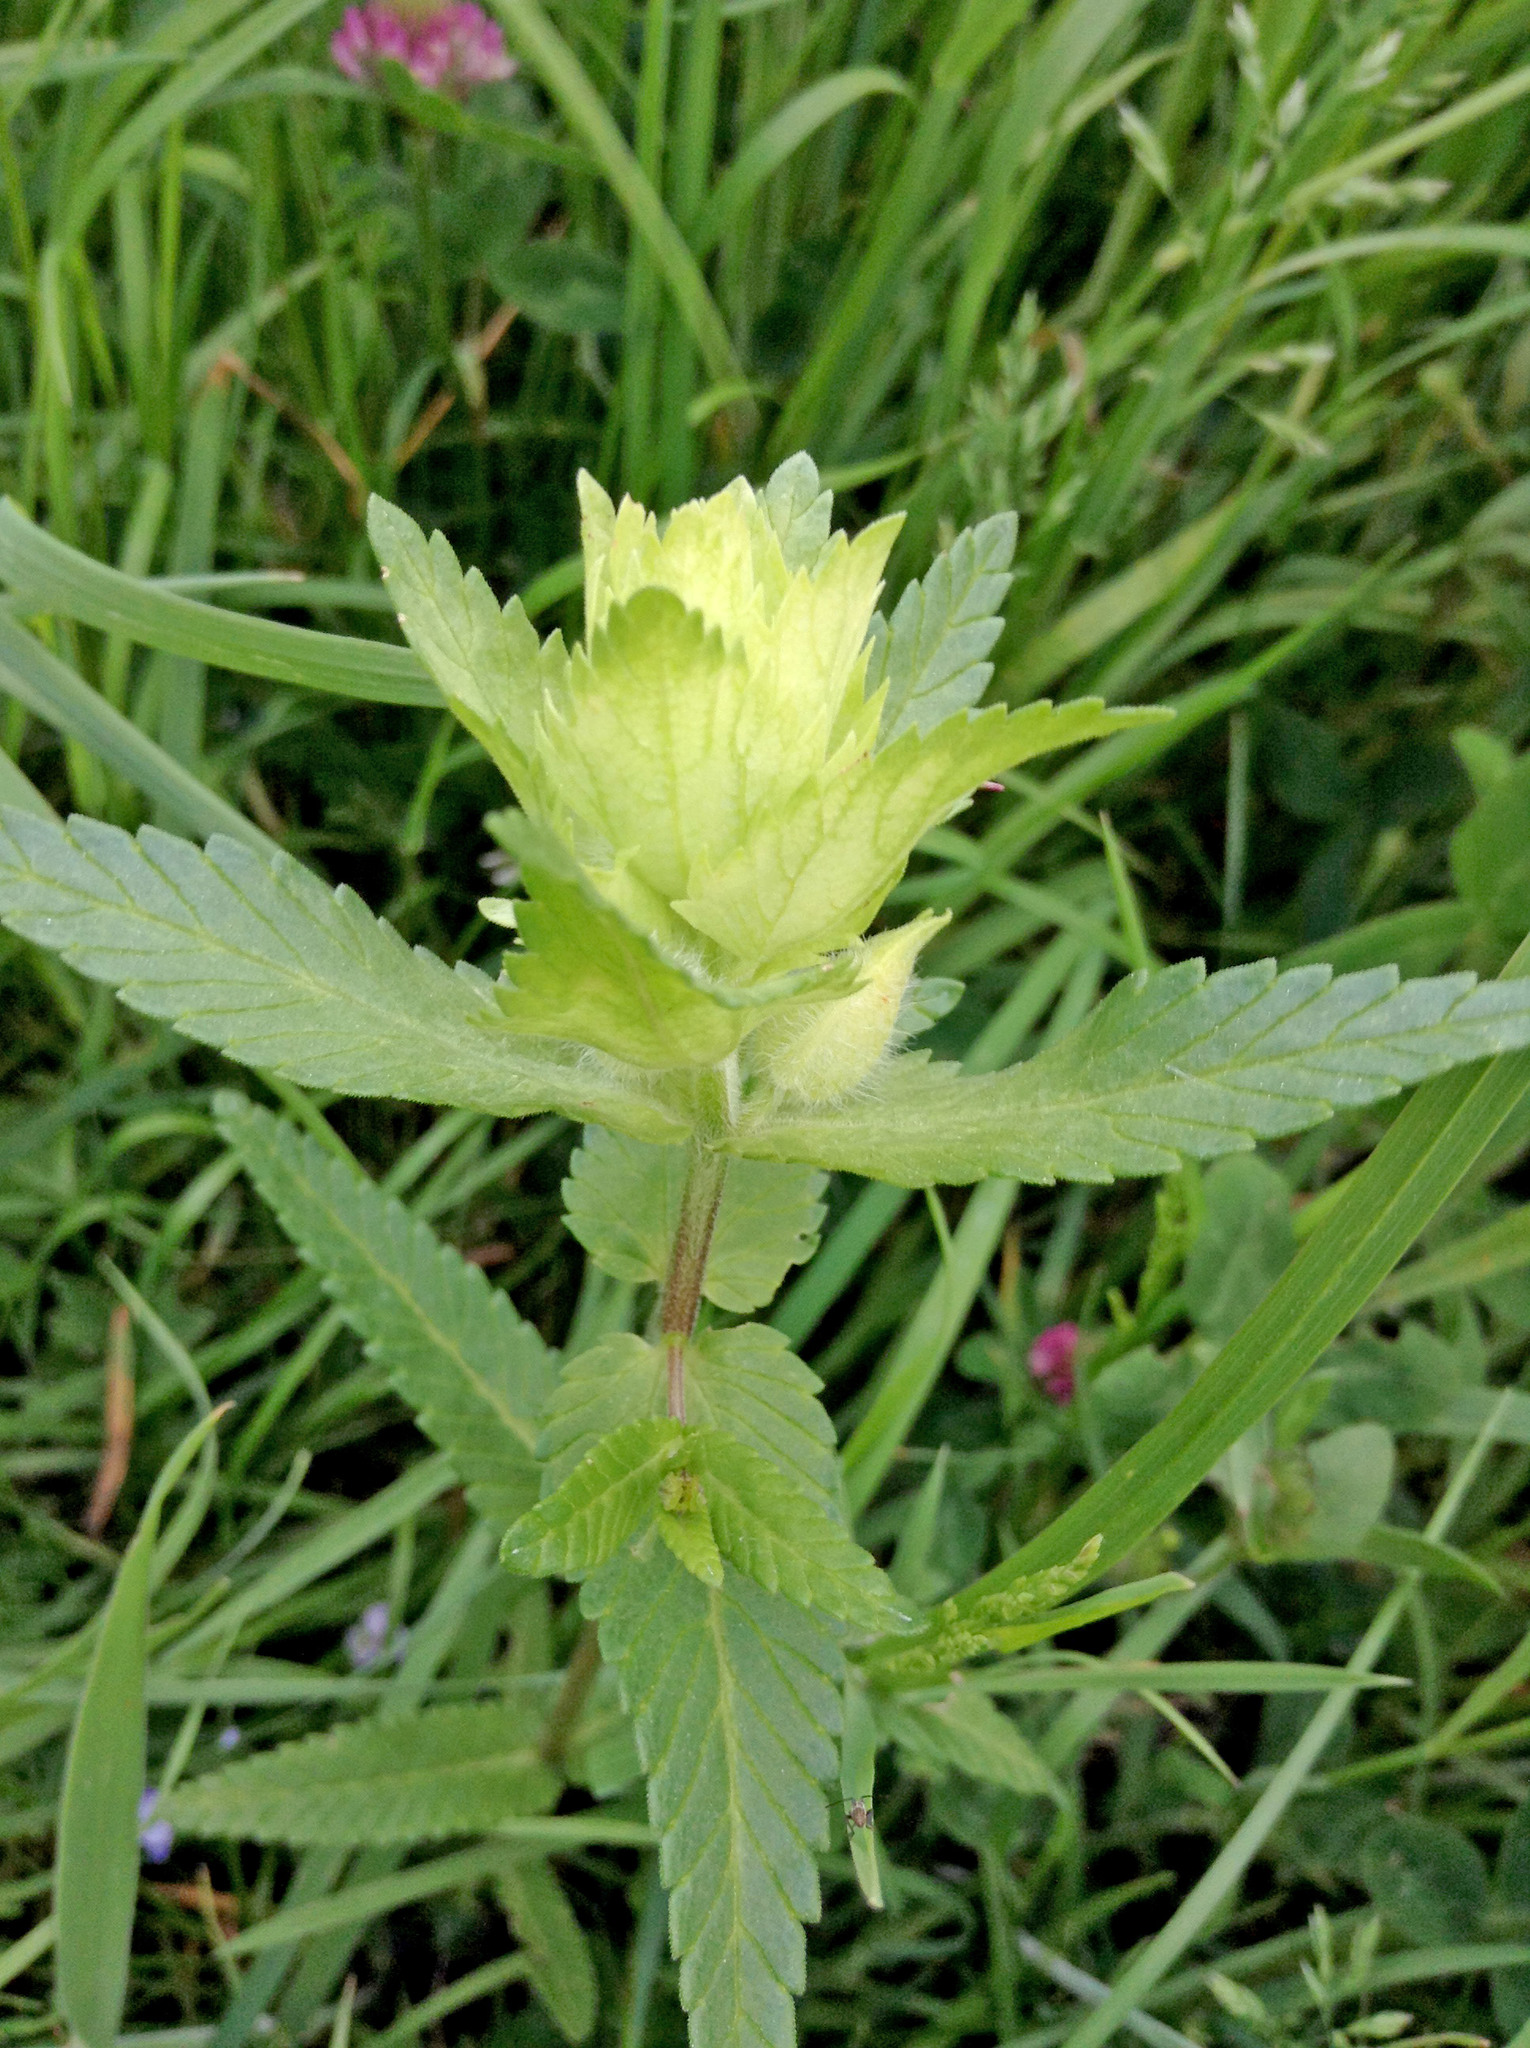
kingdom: Plantae
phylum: Tracheophyta
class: Magnoliopsida
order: Lamiales
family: Orobanchaceae
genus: Rhinanthus
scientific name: Rhinanthus alectorolophus
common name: Greater yellow-rattle
